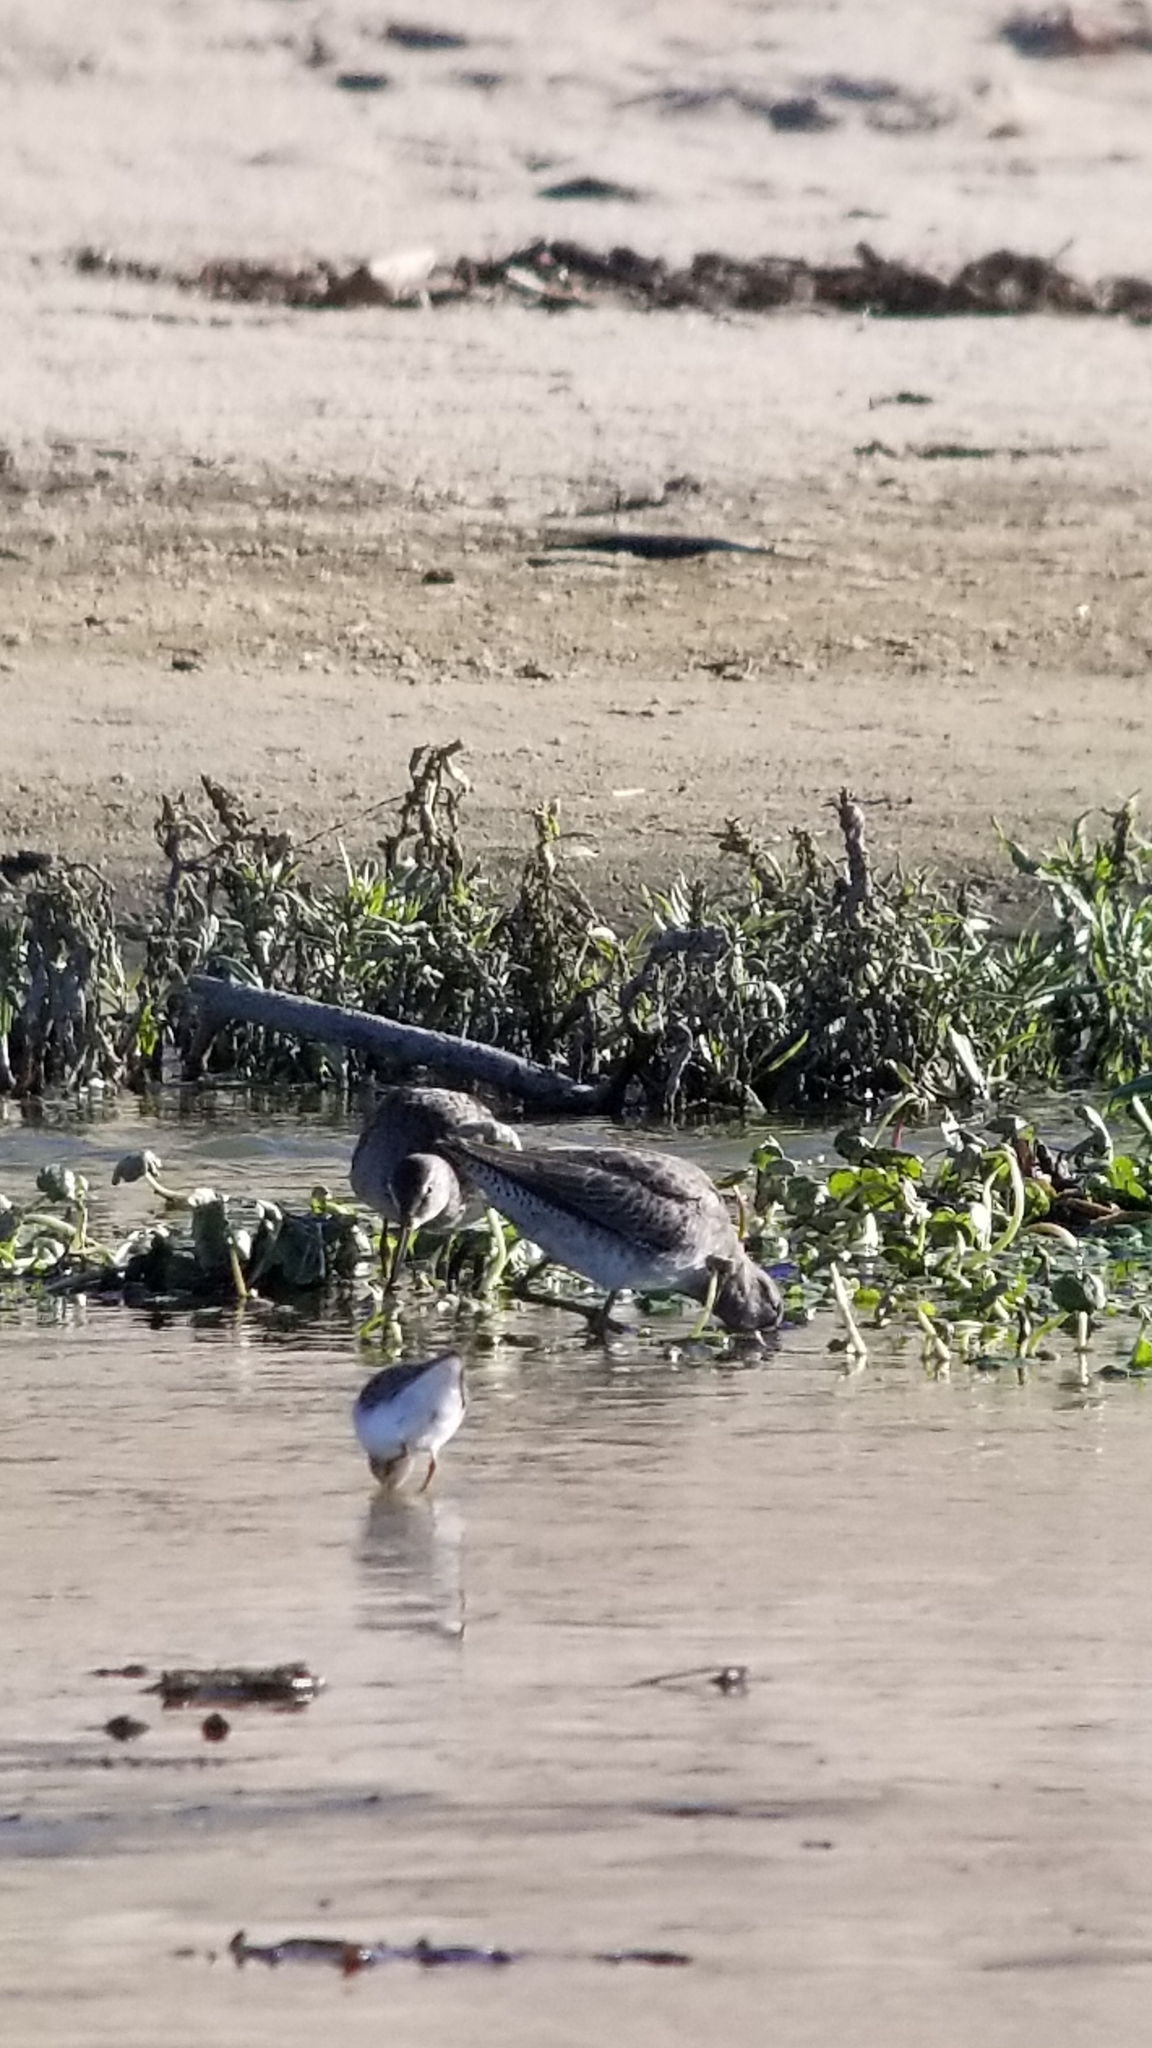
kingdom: Animalia
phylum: Chordata
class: Aves
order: Charadriiformes
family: Scolopacidae
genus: Limnodromus
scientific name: Limnodromus scolopaceus
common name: Long-billed dowitcher
